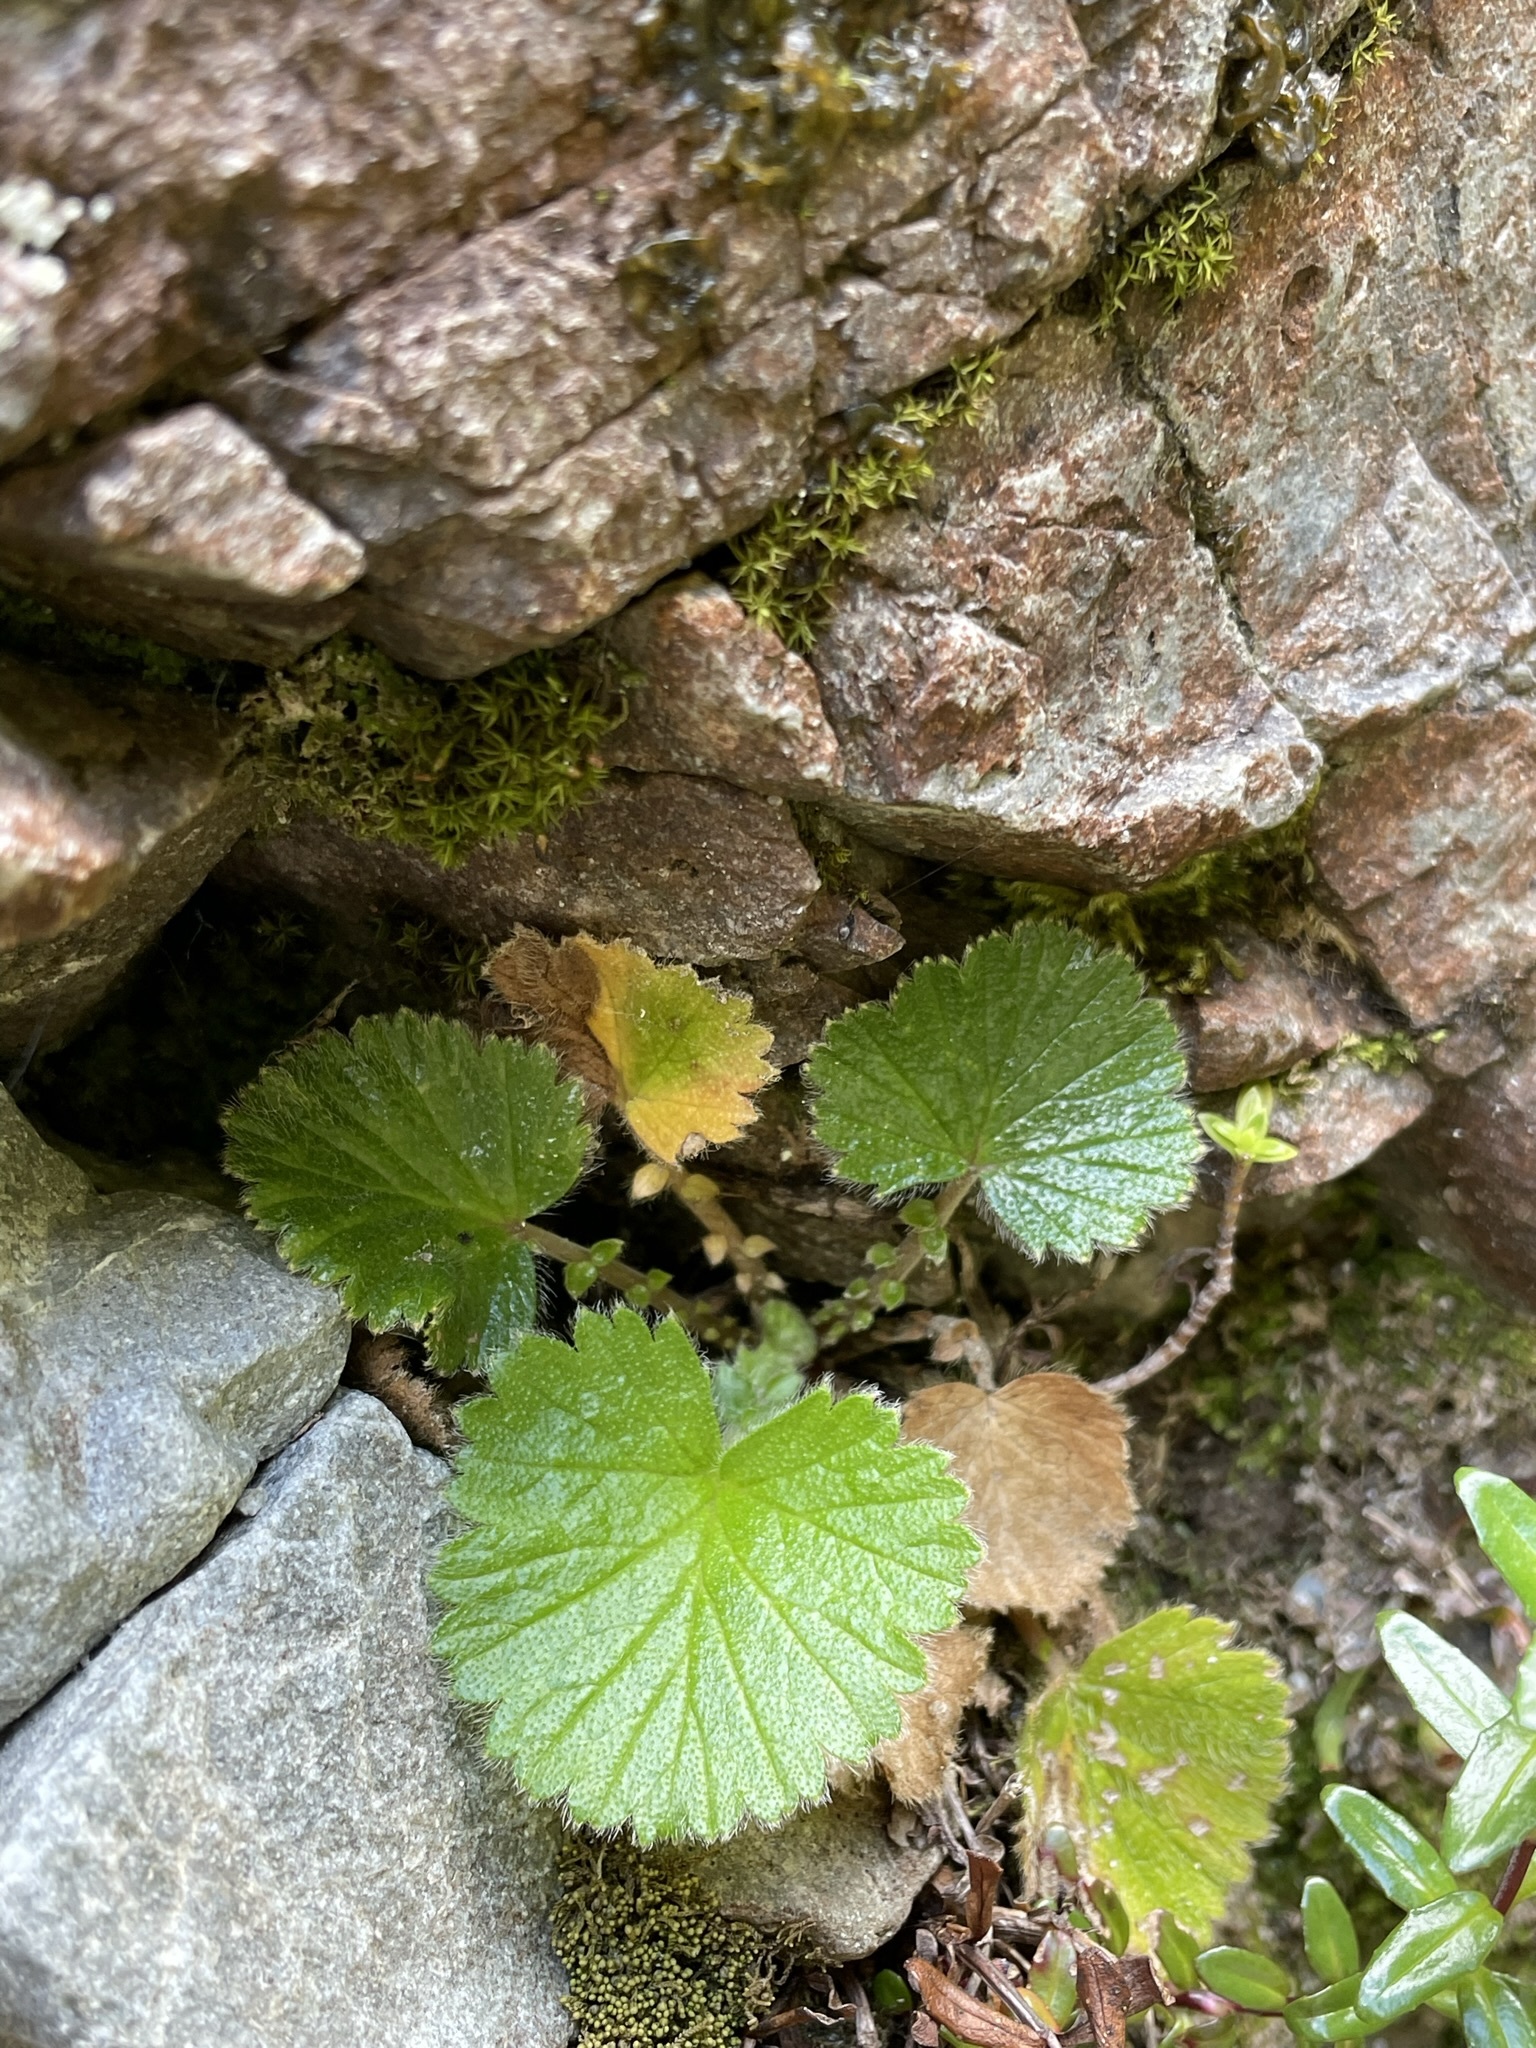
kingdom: Plantae
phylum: Tracheophyta
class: Magnoliopsida
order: Rosales
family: Rosaceae
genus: Geum
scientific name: Geum cockaynei
